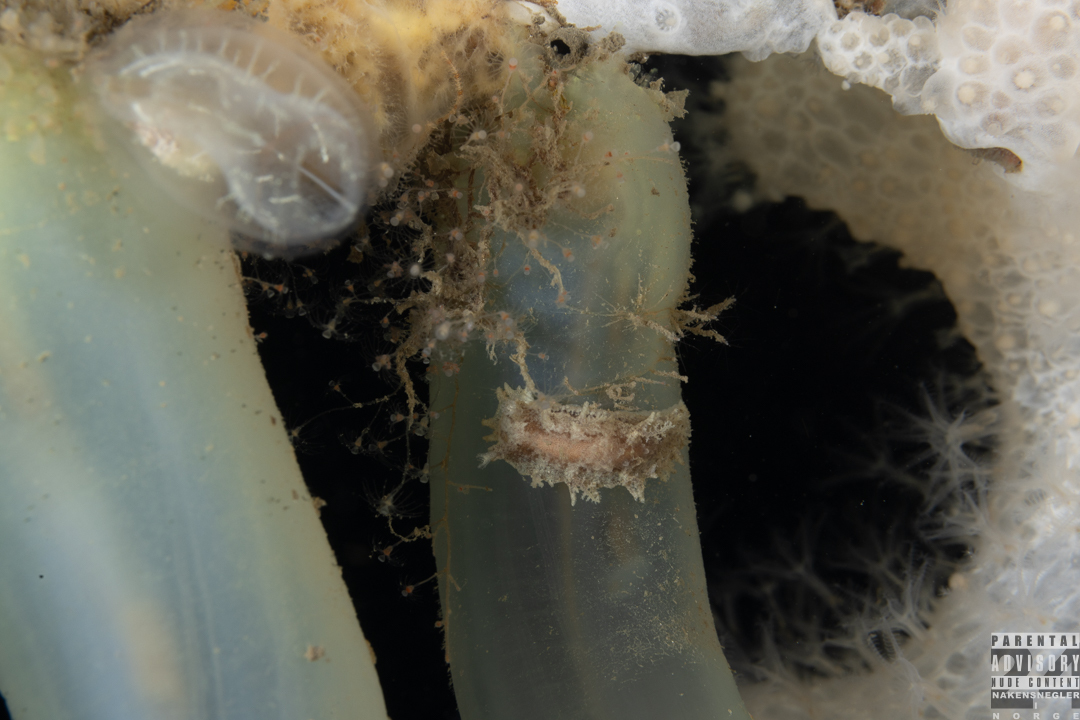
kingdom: Animalia
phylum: Mollusca
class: Gastropoda
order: Nudibranchia
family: Tritoniidae
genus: Duvaucelia
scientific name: Duvaucelia plebeia
